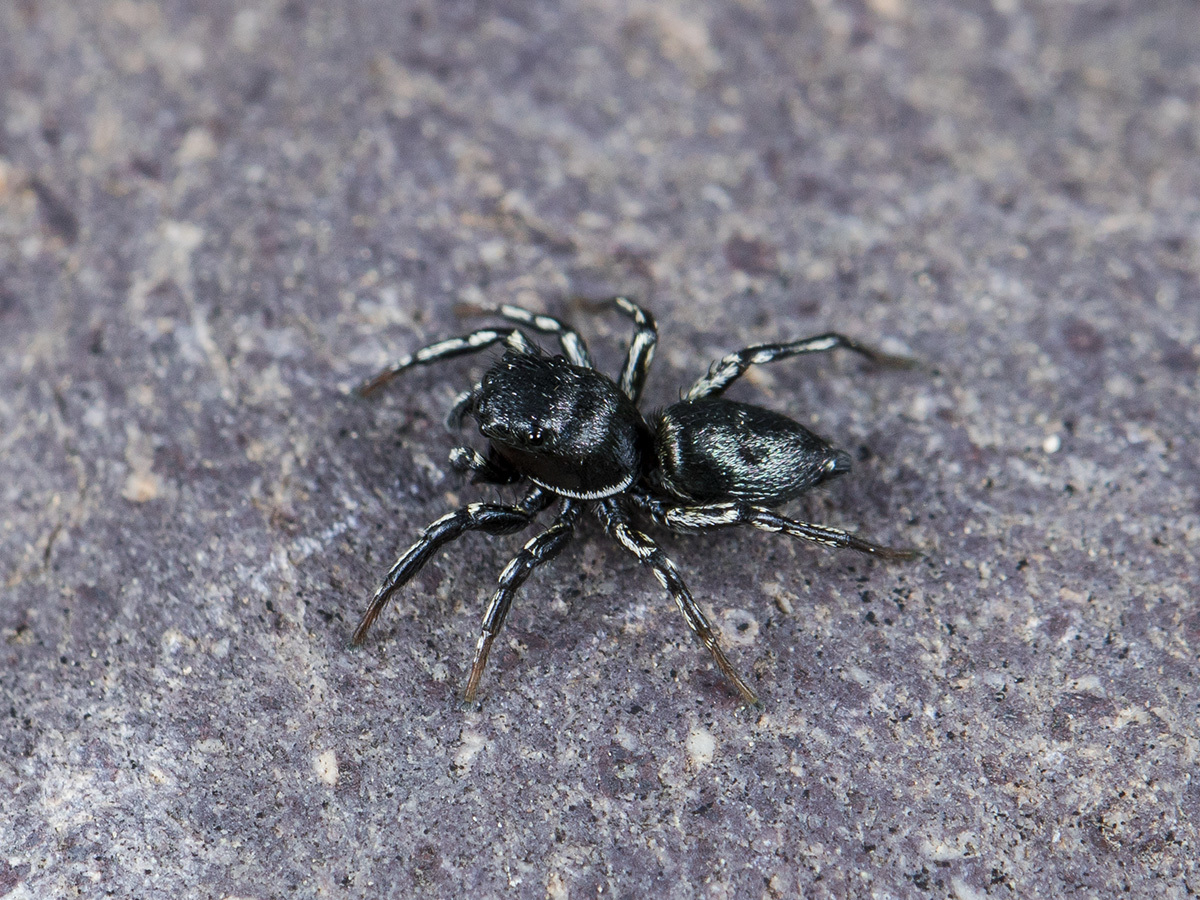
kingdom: Animalia
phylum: Arthropoda
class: Arachnida
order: Araneae
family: Salticidae
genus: Heliophanus
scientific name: Heliophanus potanini
